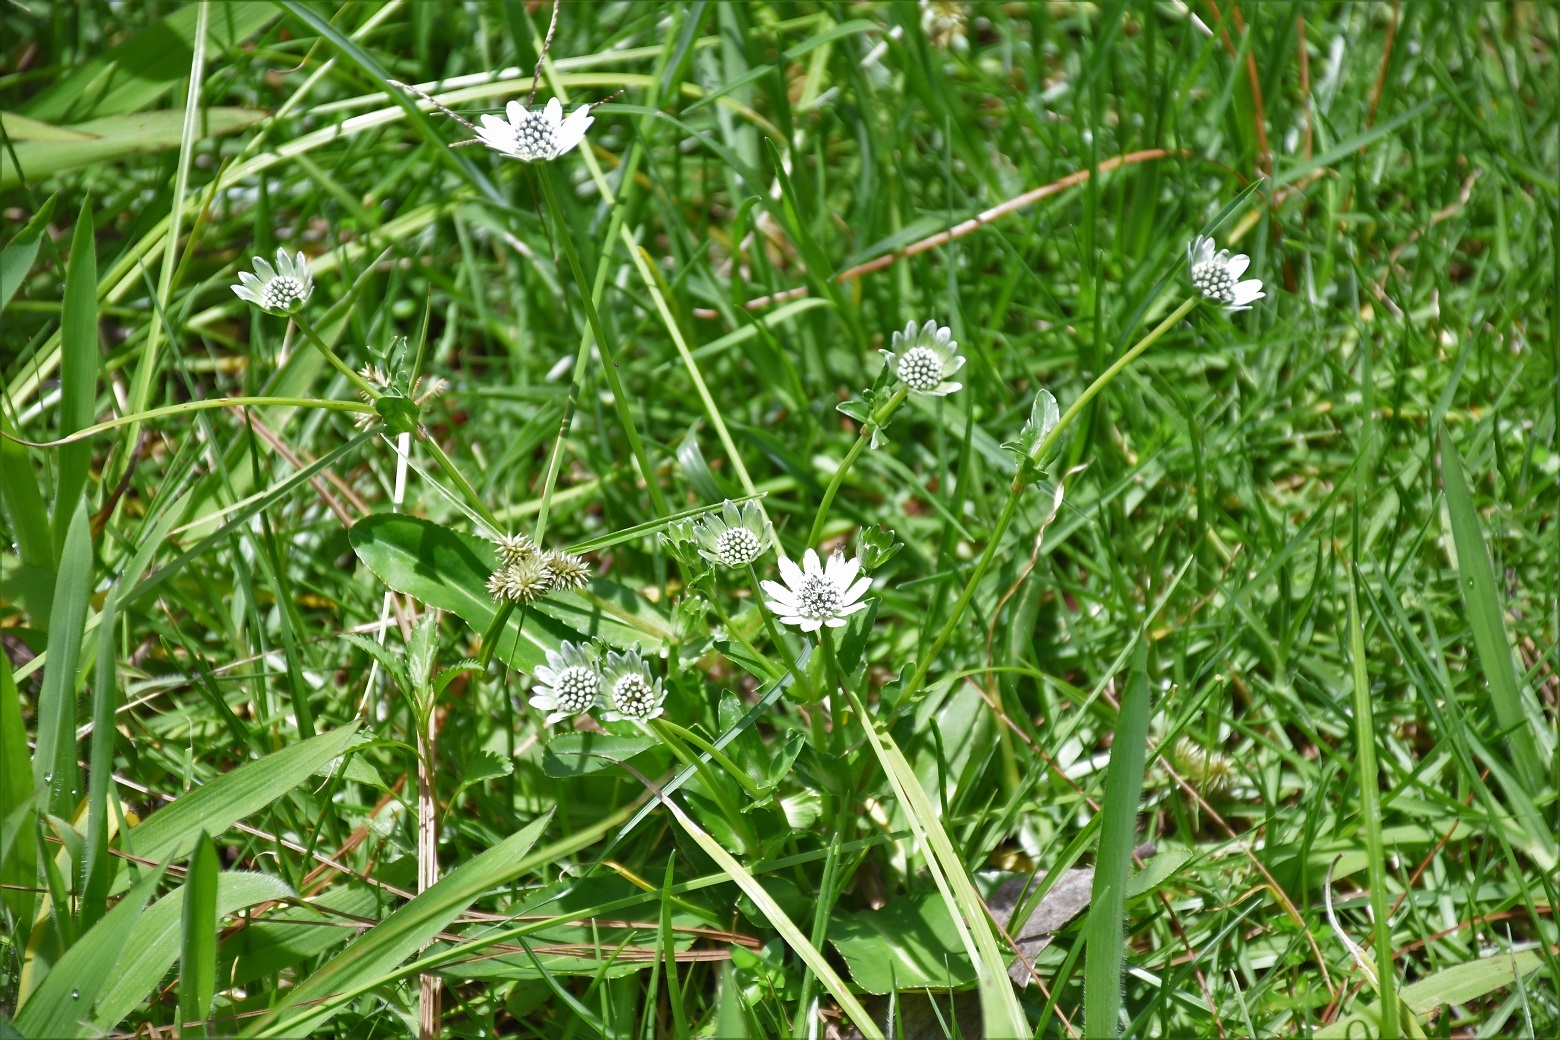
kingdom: Plantae
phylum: Tracheophyta
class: Magnoliopsida
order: Apiales
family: Apiaceae
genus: Eryngium
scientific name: Eryngium scaposum
